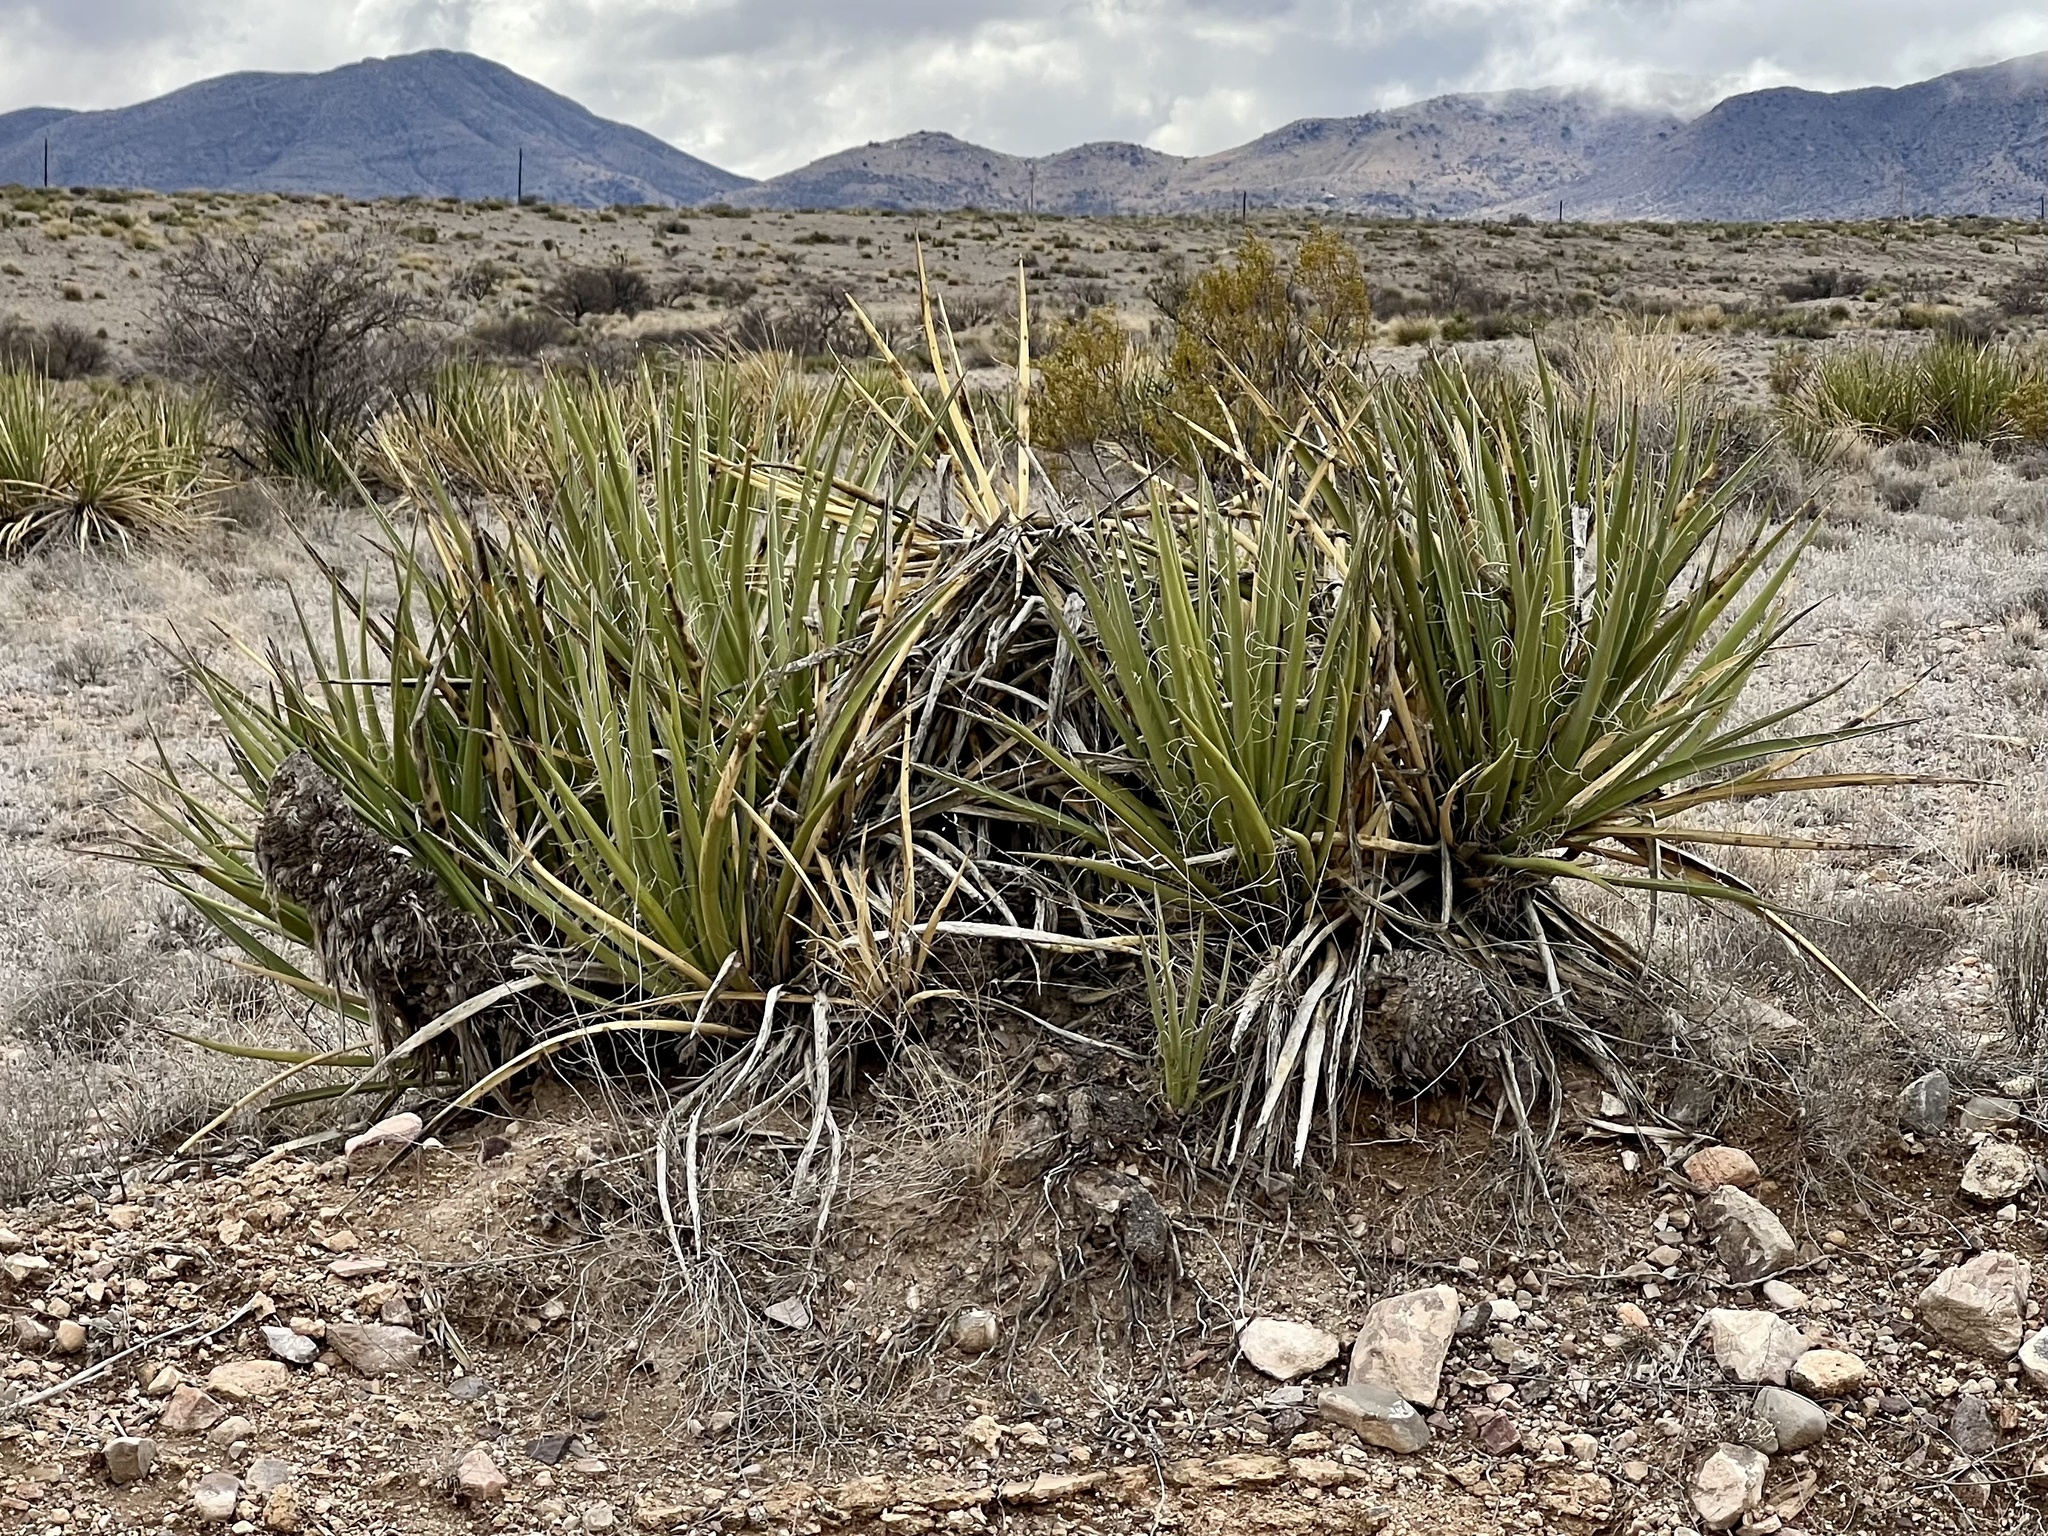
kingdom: Plantae
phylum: Tracheophyta
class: Liliopsida
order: Asparagales
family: Asparagaceae
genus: Yucca
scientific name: Yucca baccata
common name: Banana yucca
